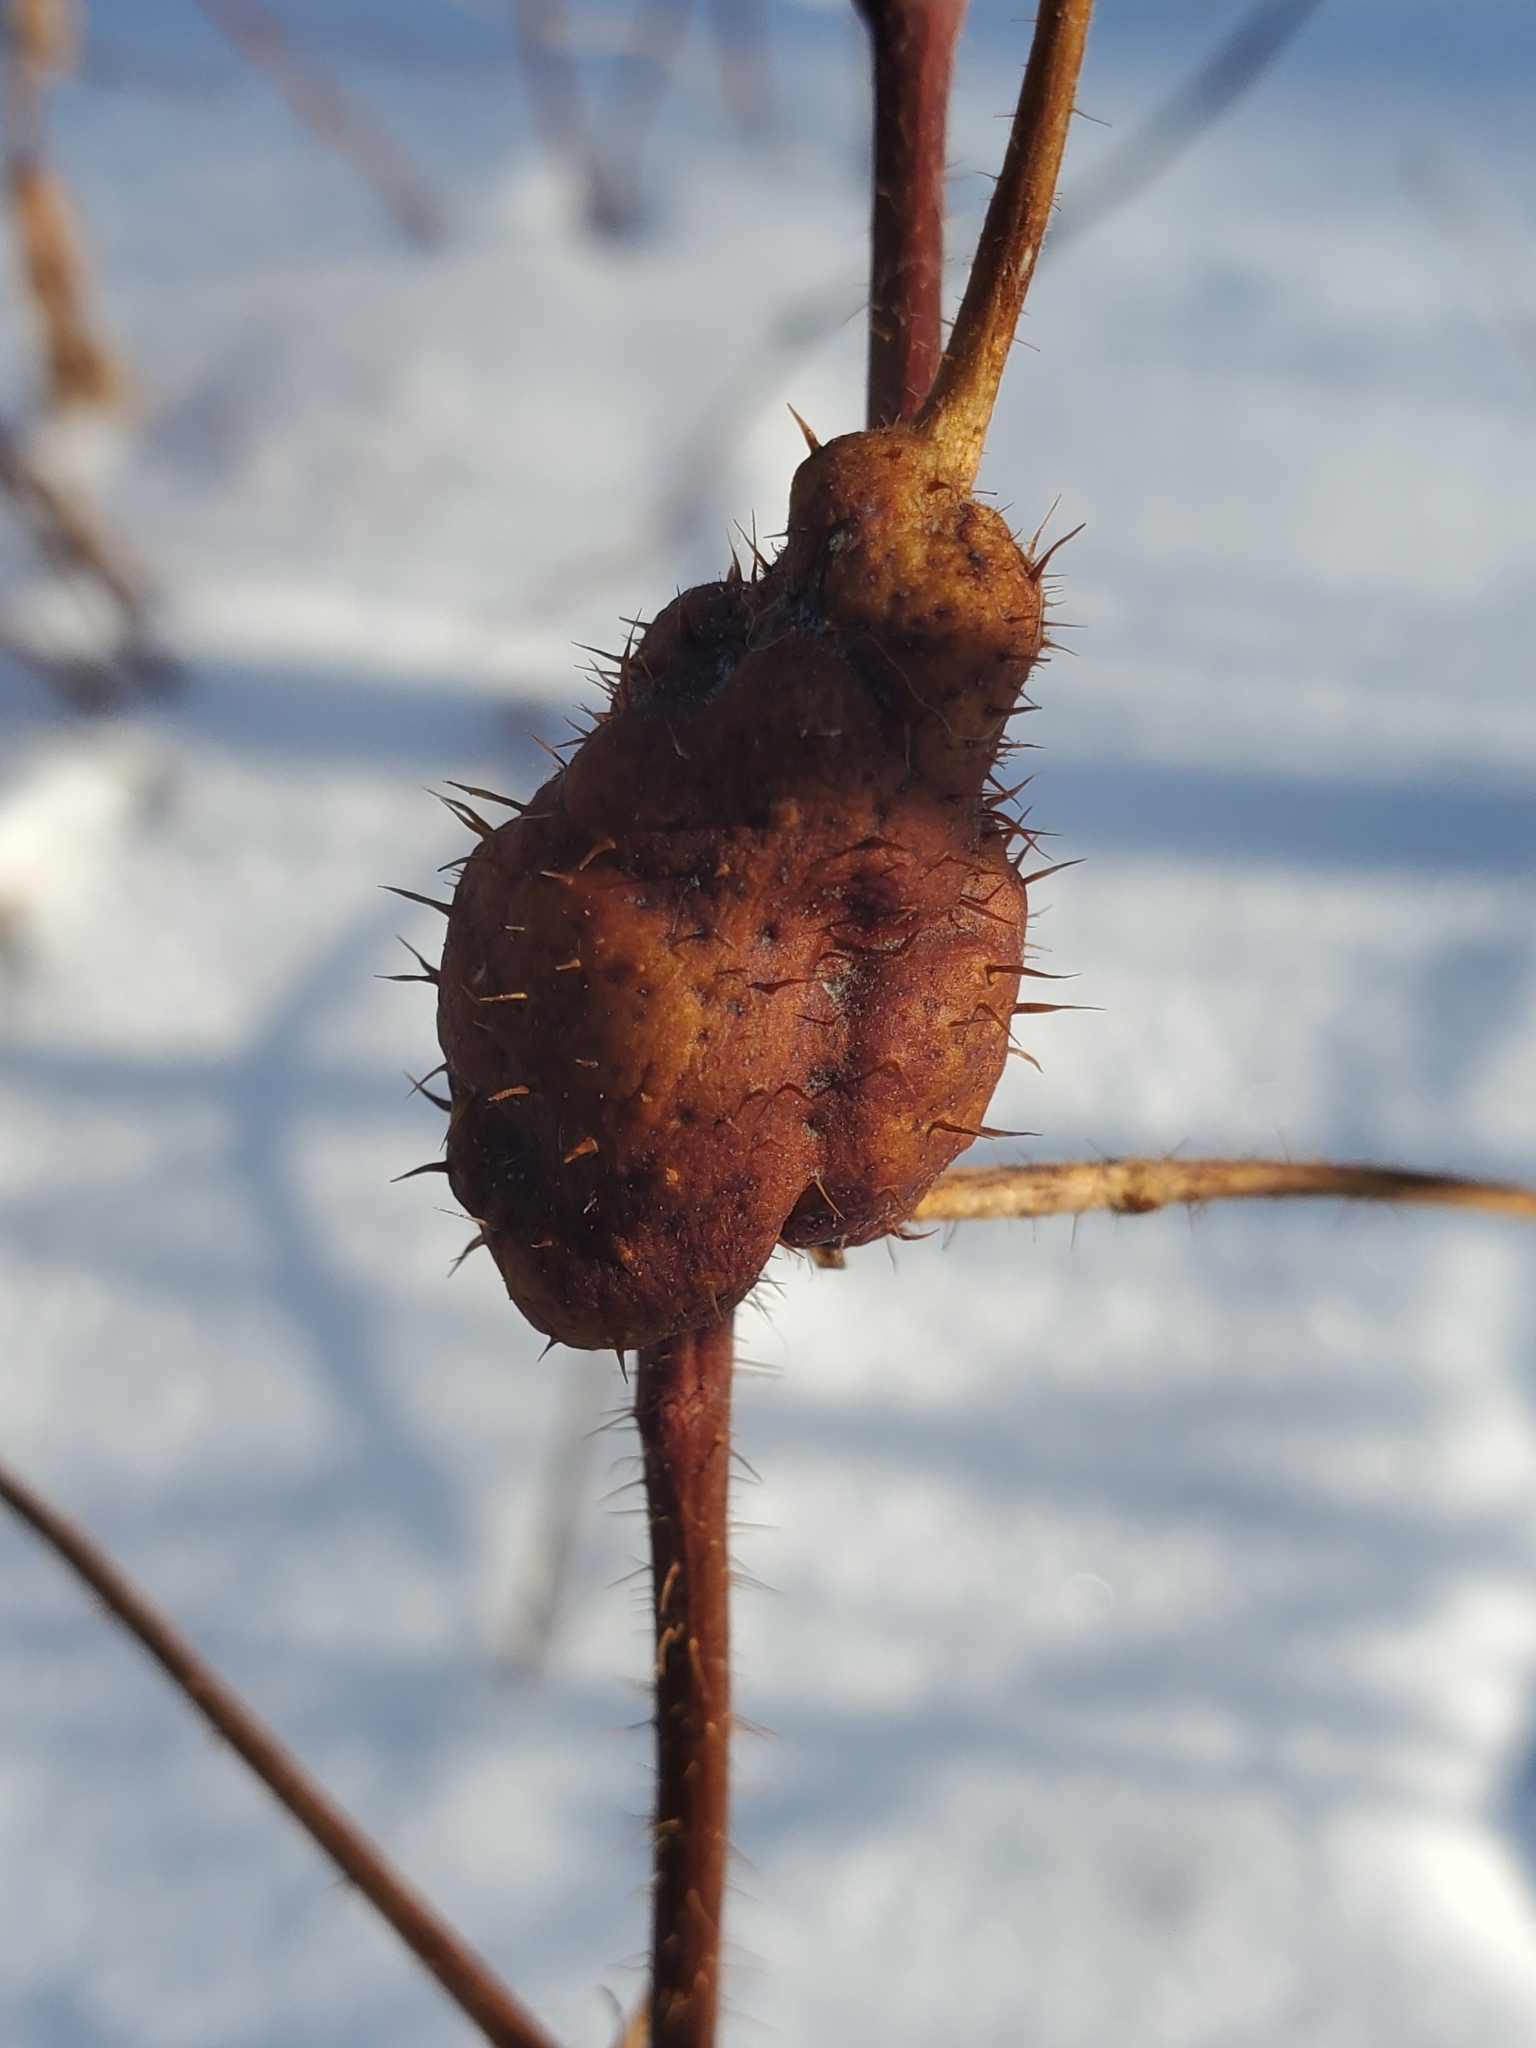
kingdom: Animalia
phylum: Arthropoda
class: Insecta
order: Hymenoptera
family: Cynipidae
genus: Diastrophus
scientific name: Diastrophus turgidus
